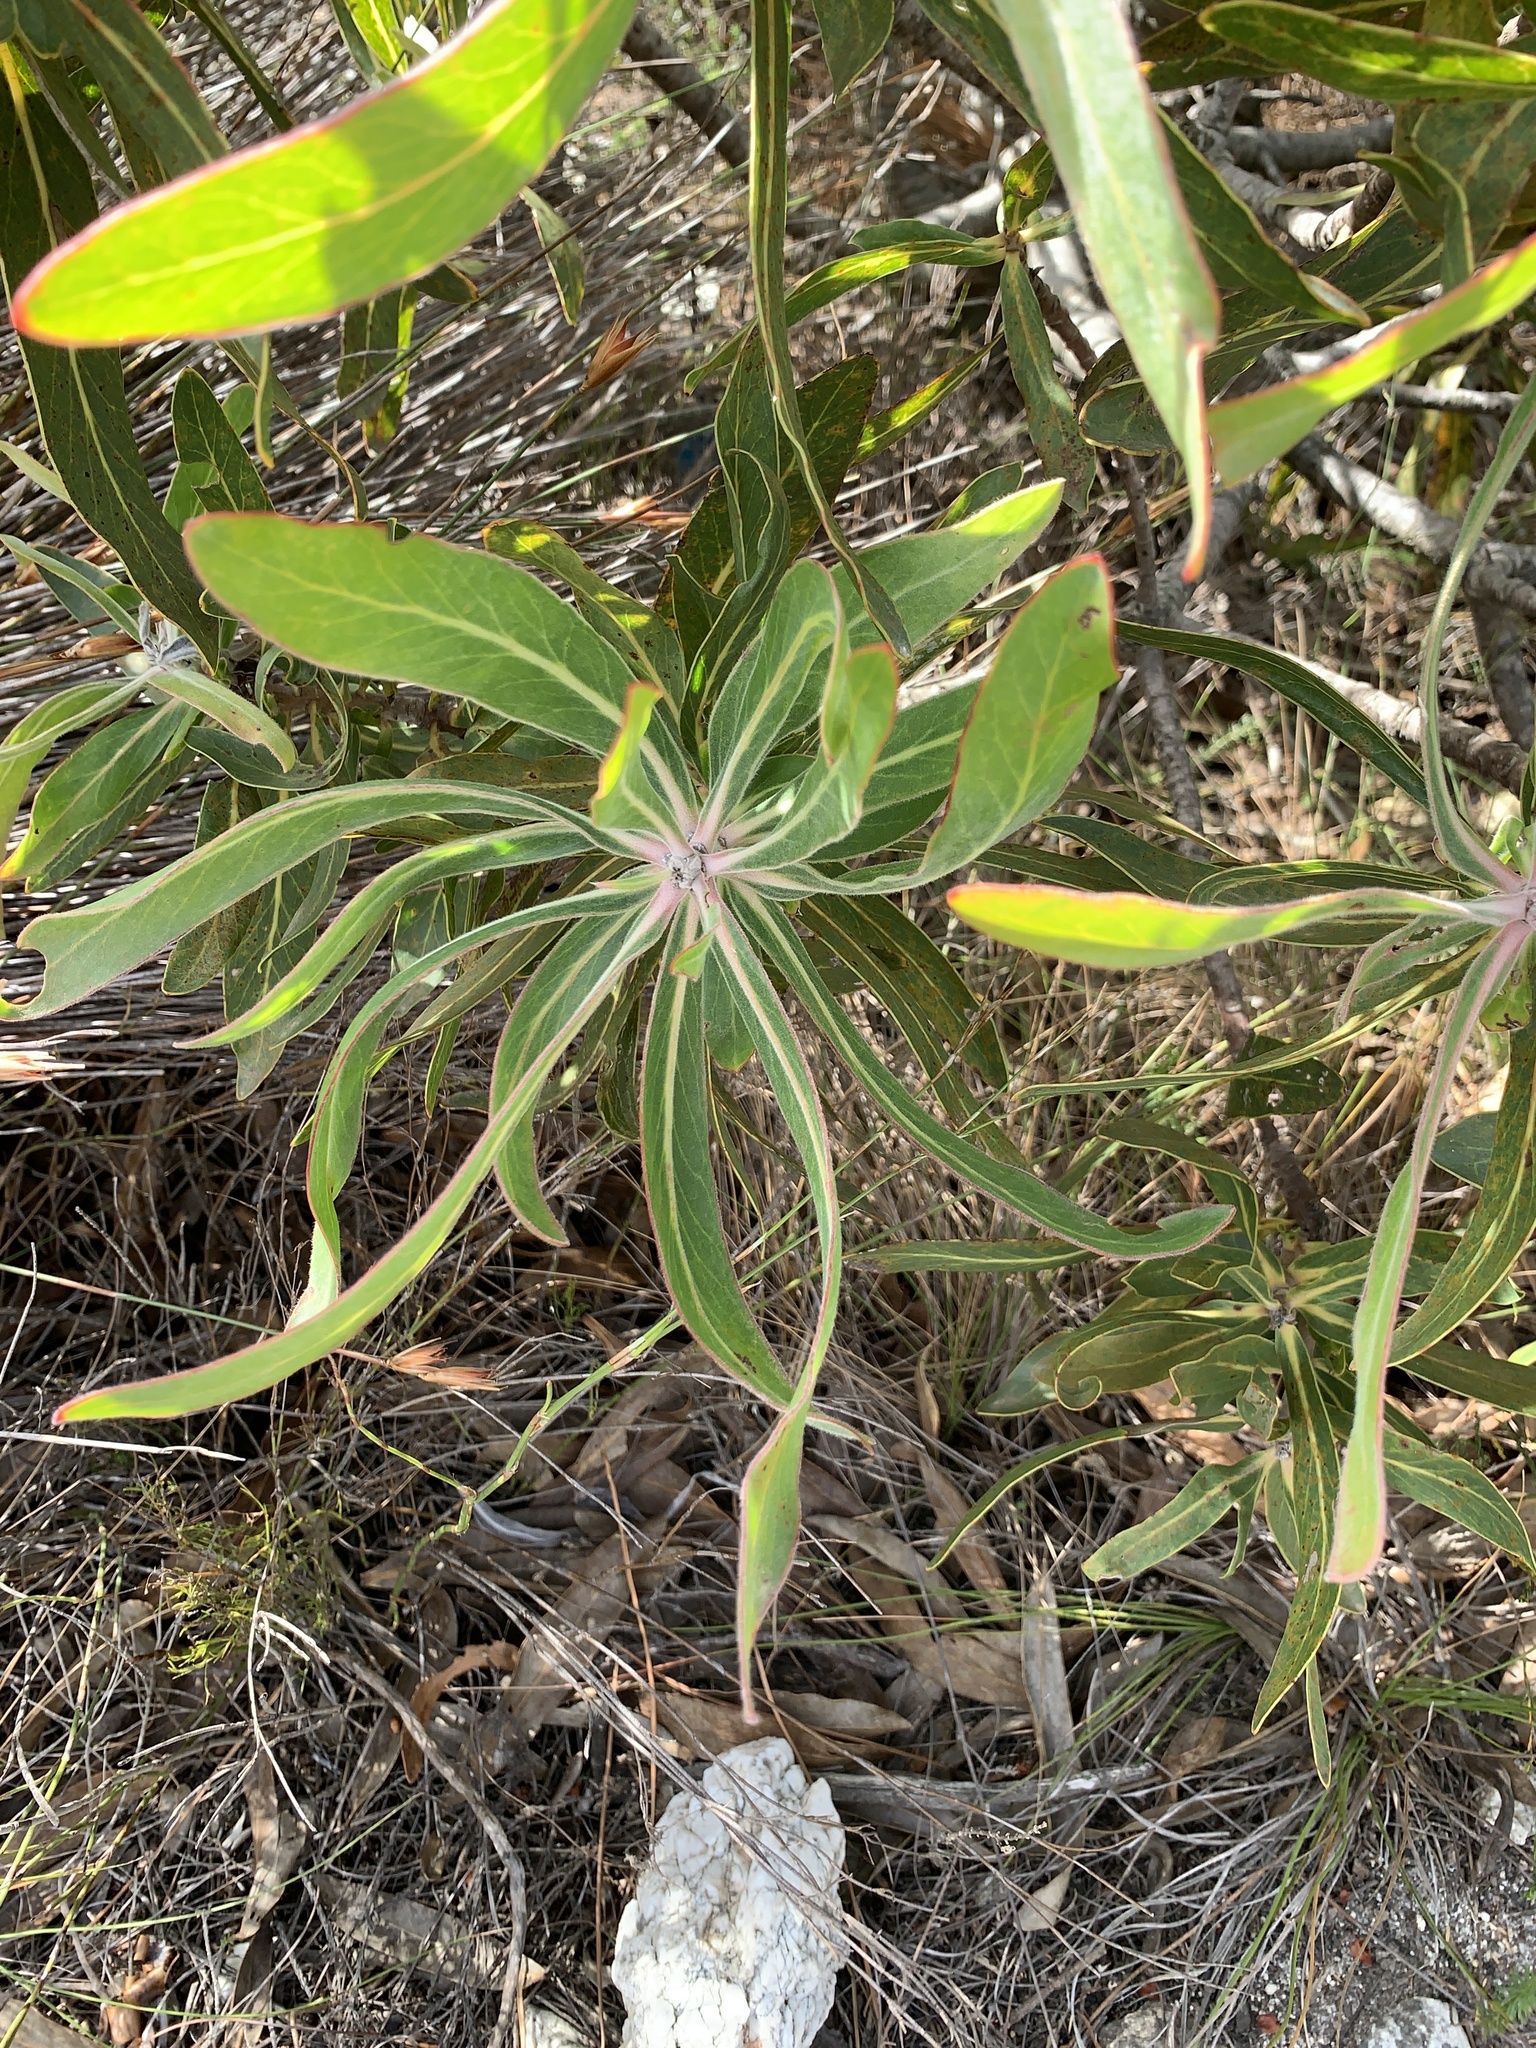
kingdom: Plantae
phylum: Tracheophyta
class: Magnoliopsida
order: Proteales
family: Proteaceae
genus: Protea
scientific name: Protea neriifolia
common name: Blue sugarbush
